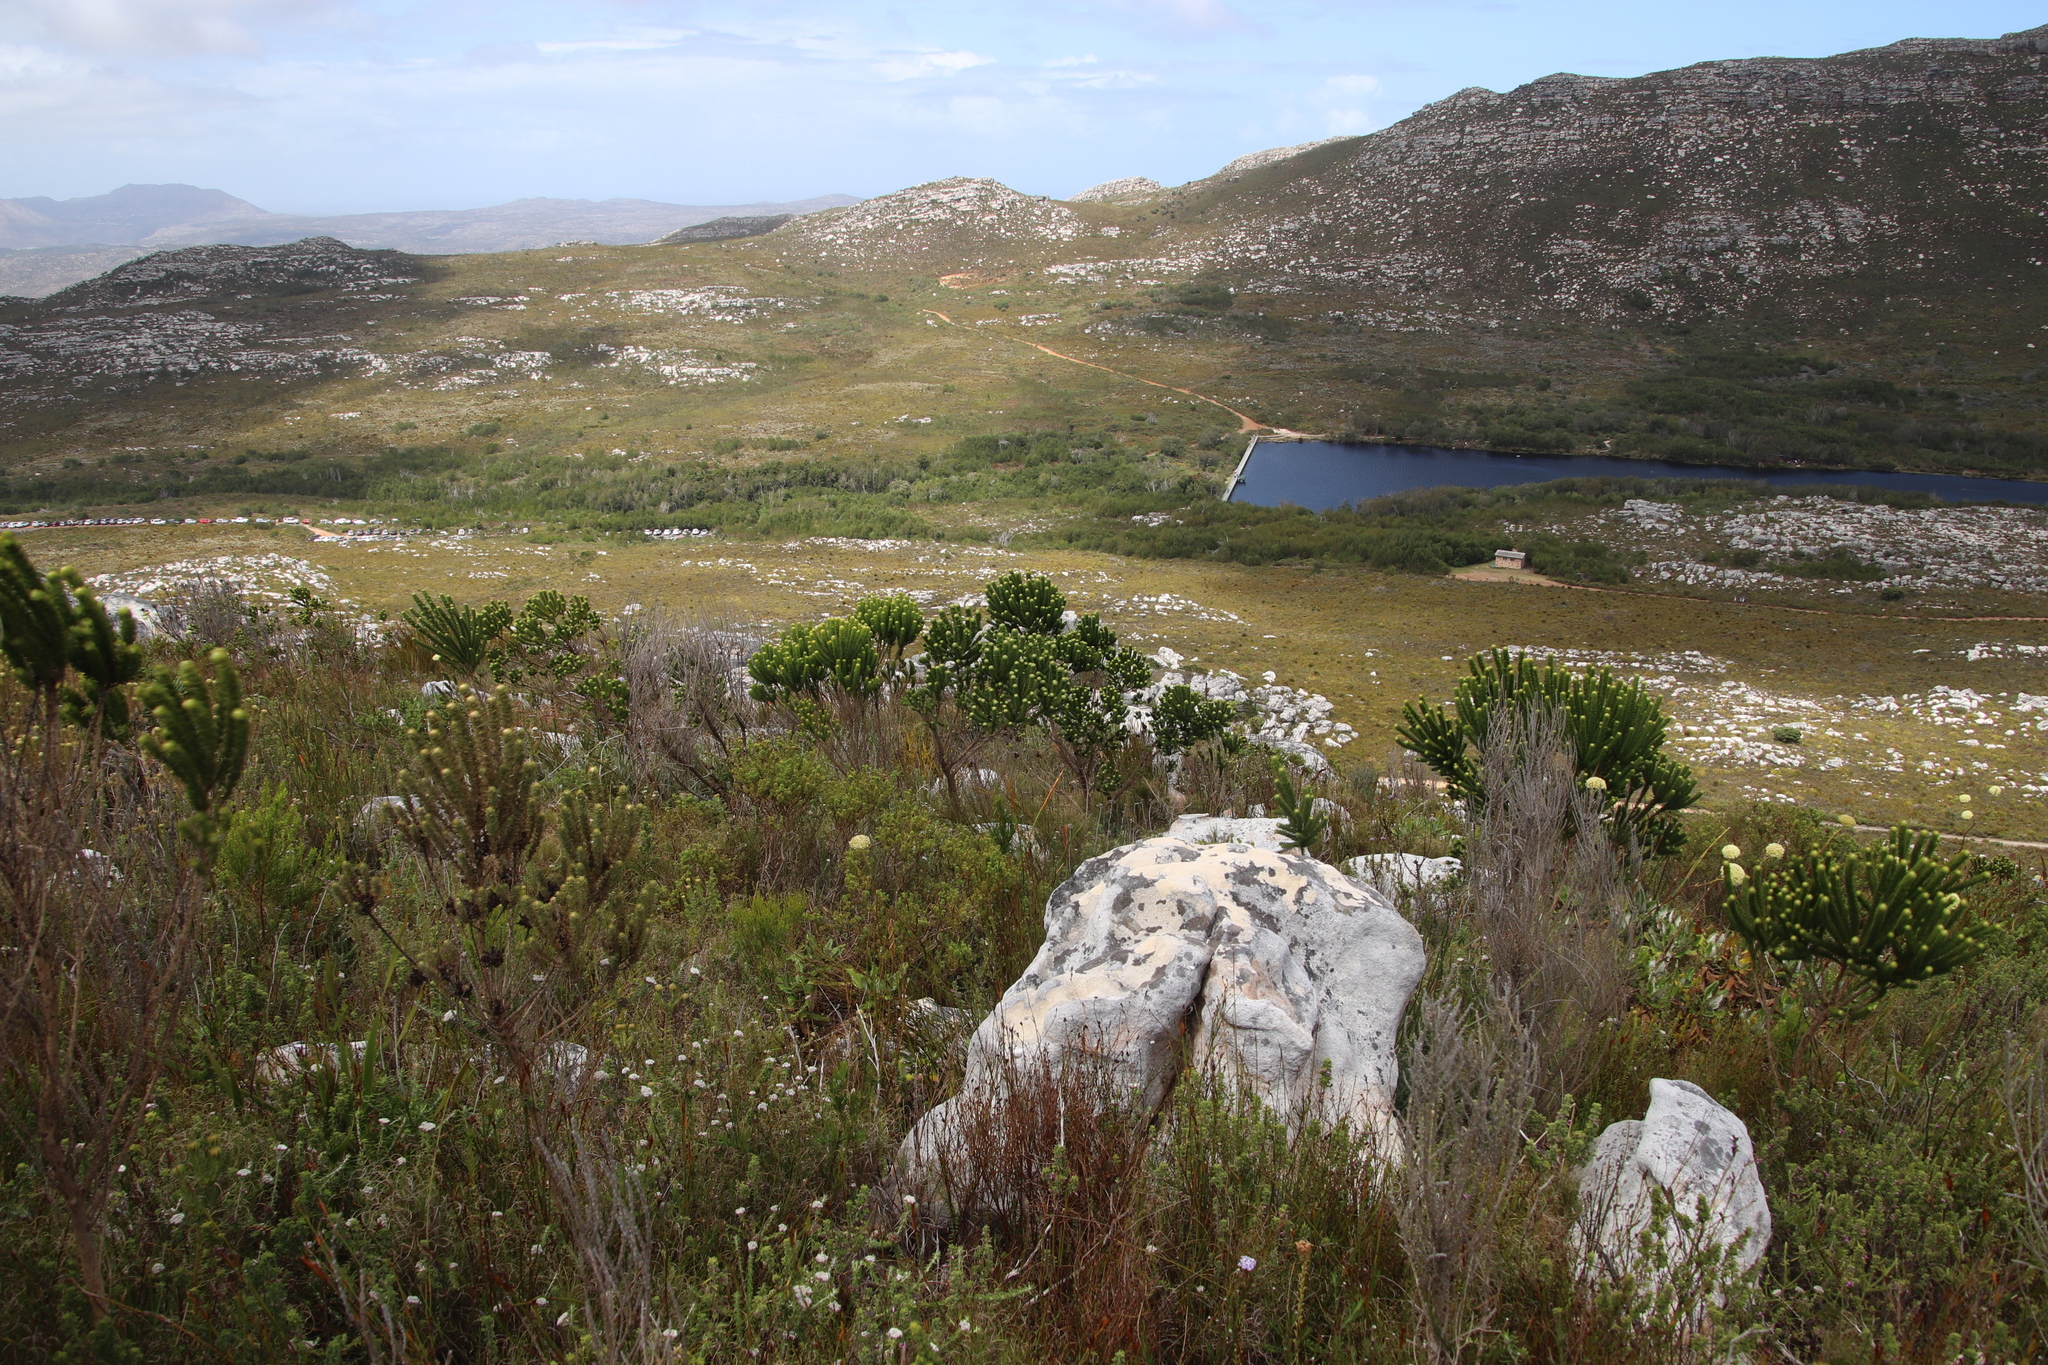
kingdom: Plantae
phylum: Tracheophyta
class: Magnoliopsida
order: Fabales
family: Fabaceae
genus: Aspalathus
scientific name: Aspalathus capitata
